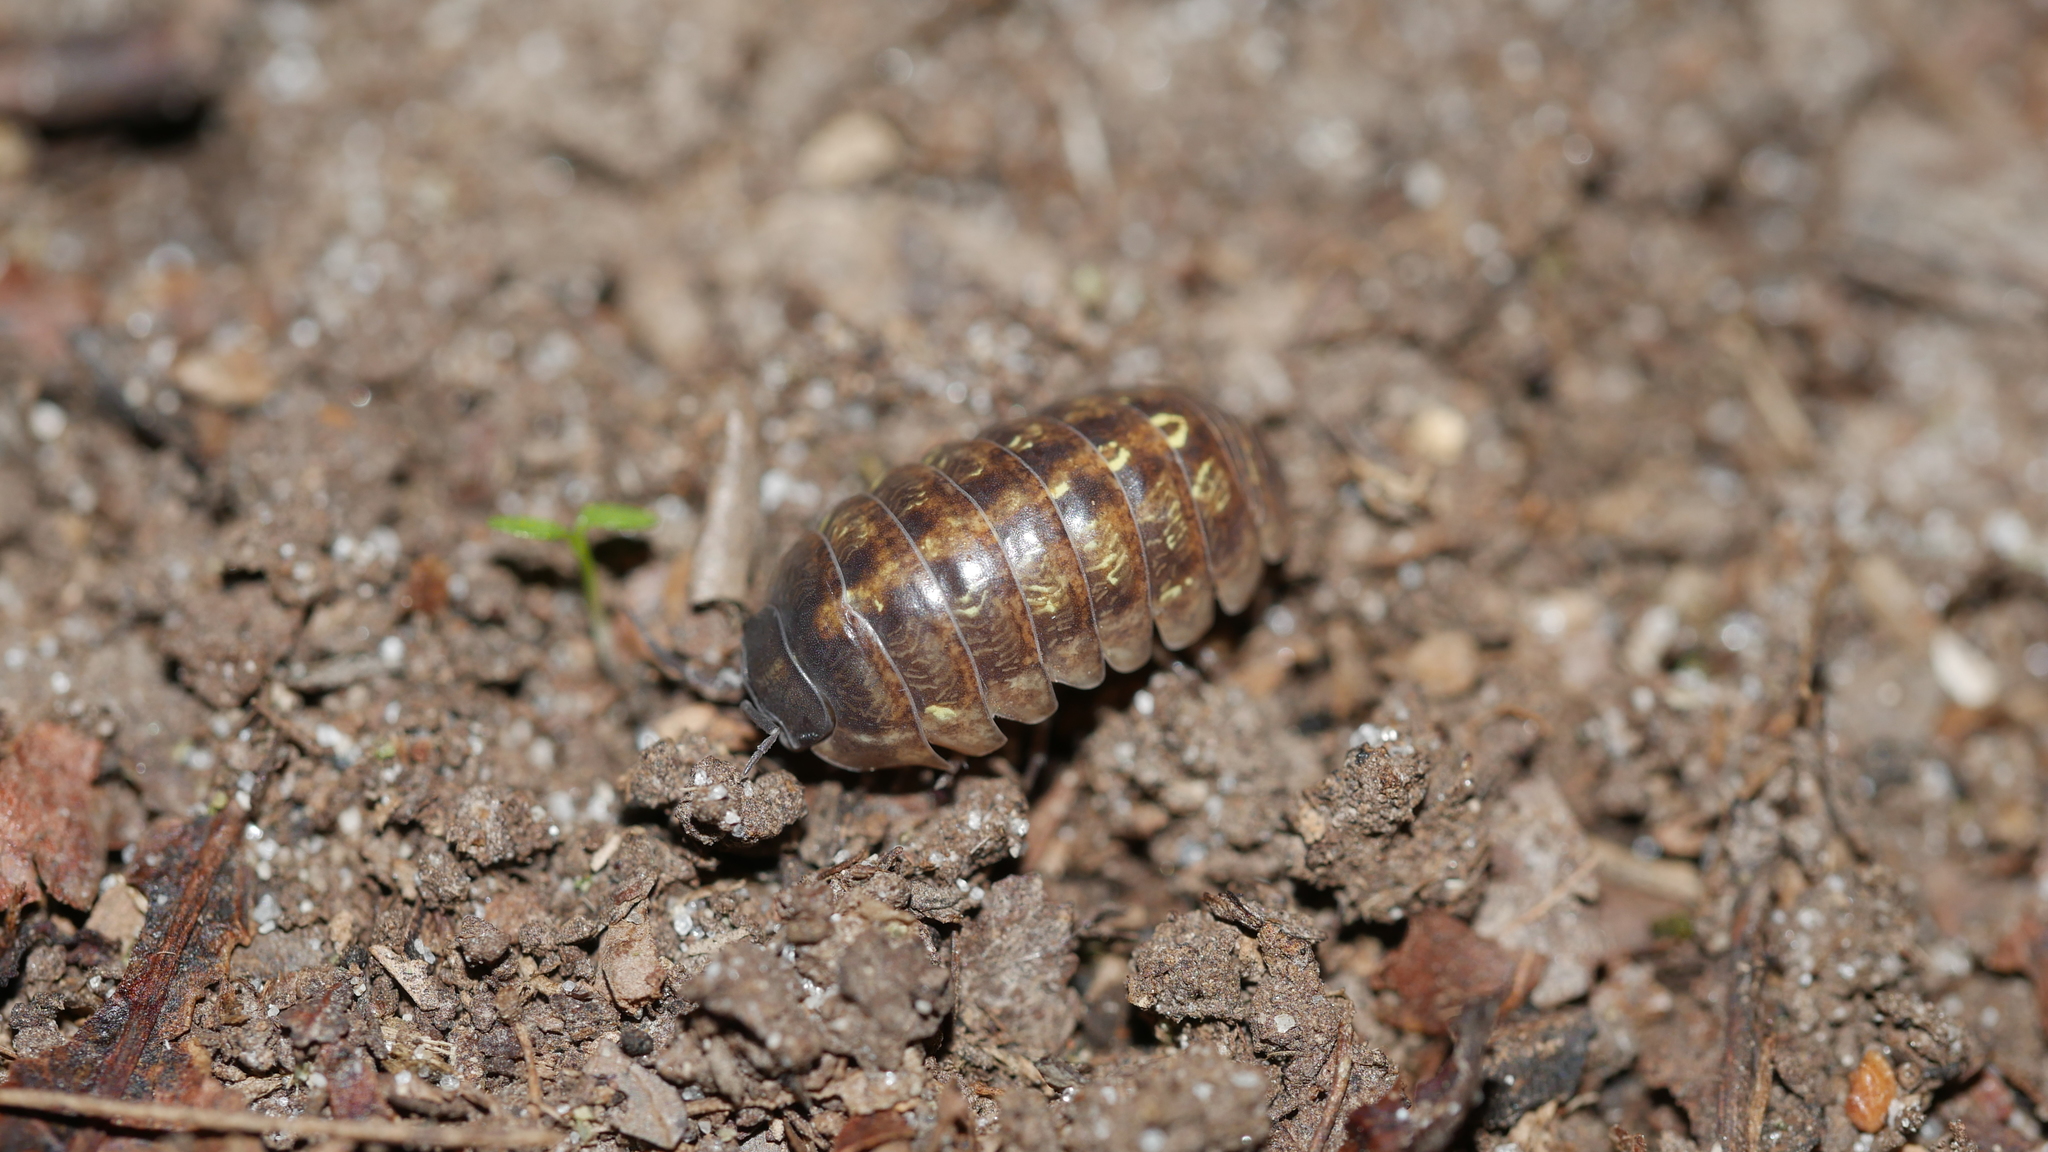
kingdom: Animalia
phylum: Arthropoda
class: Malacostraca
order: Isopoda
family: Armadillidiidae
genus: Armadillidium
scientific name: Armadillidium vulgare
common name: Common pill woodlouse
